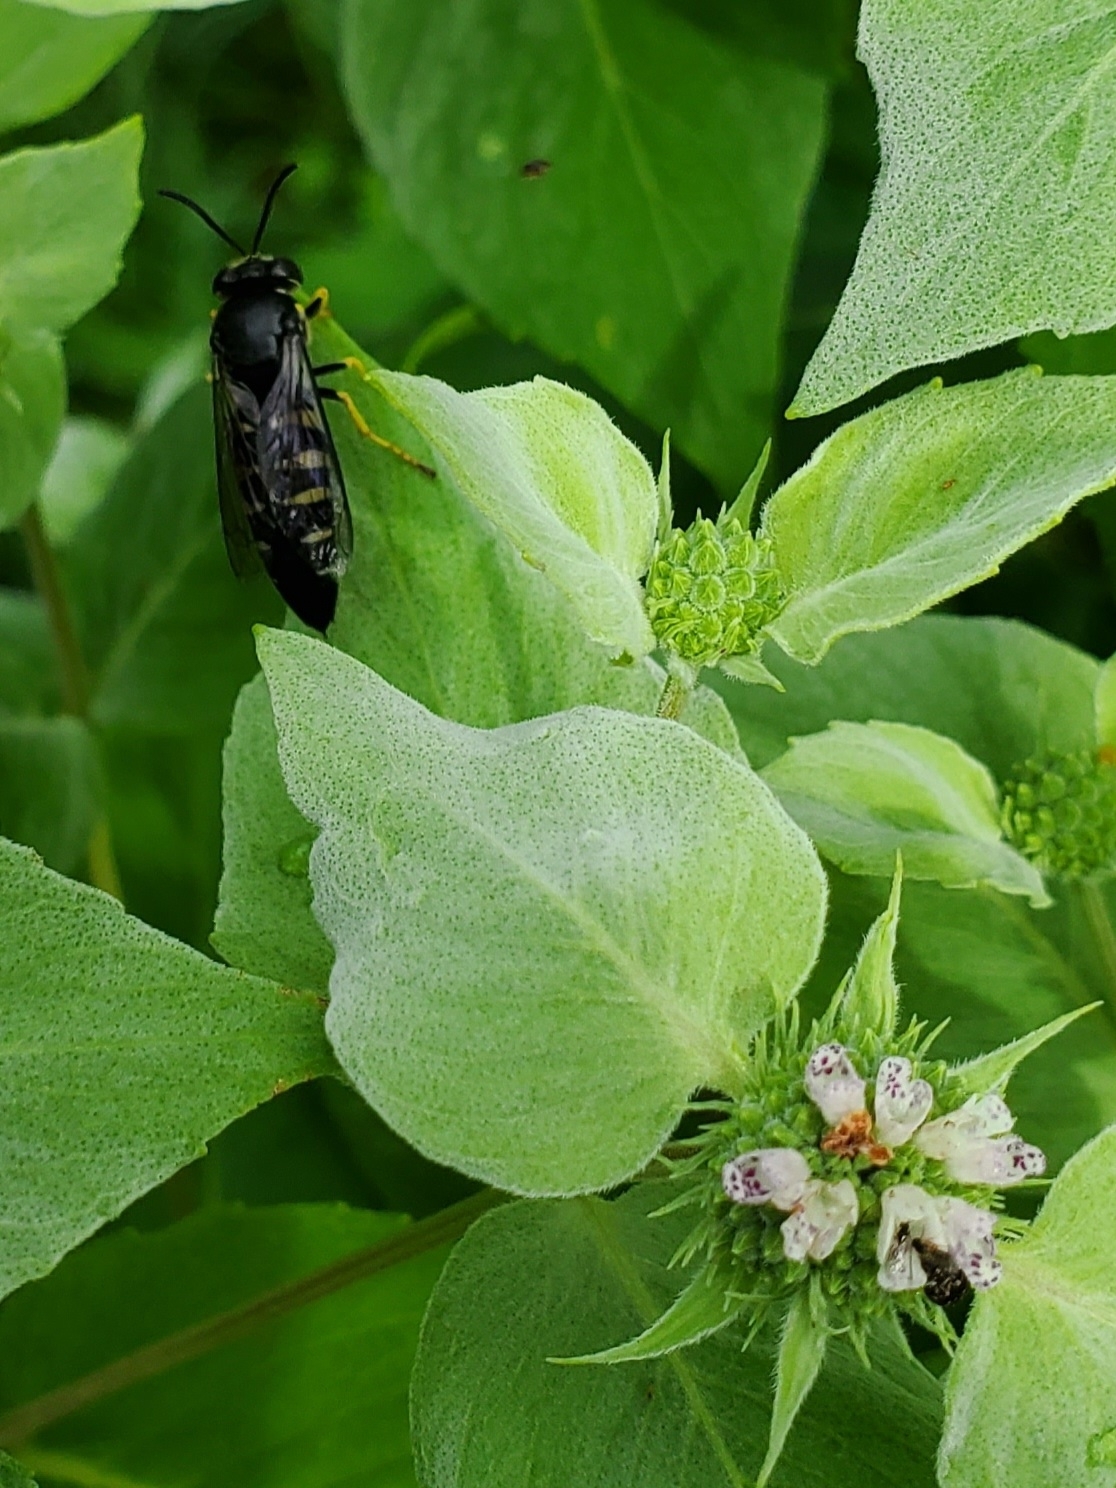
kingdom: Animalia
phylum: Arthropoda
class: Insecta
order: Hymenoptera
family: Crabronidae
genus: Bicyrtes
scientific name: Bicyrtes quadrifasciatus
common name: Four-banded stink bug hunter wasp
